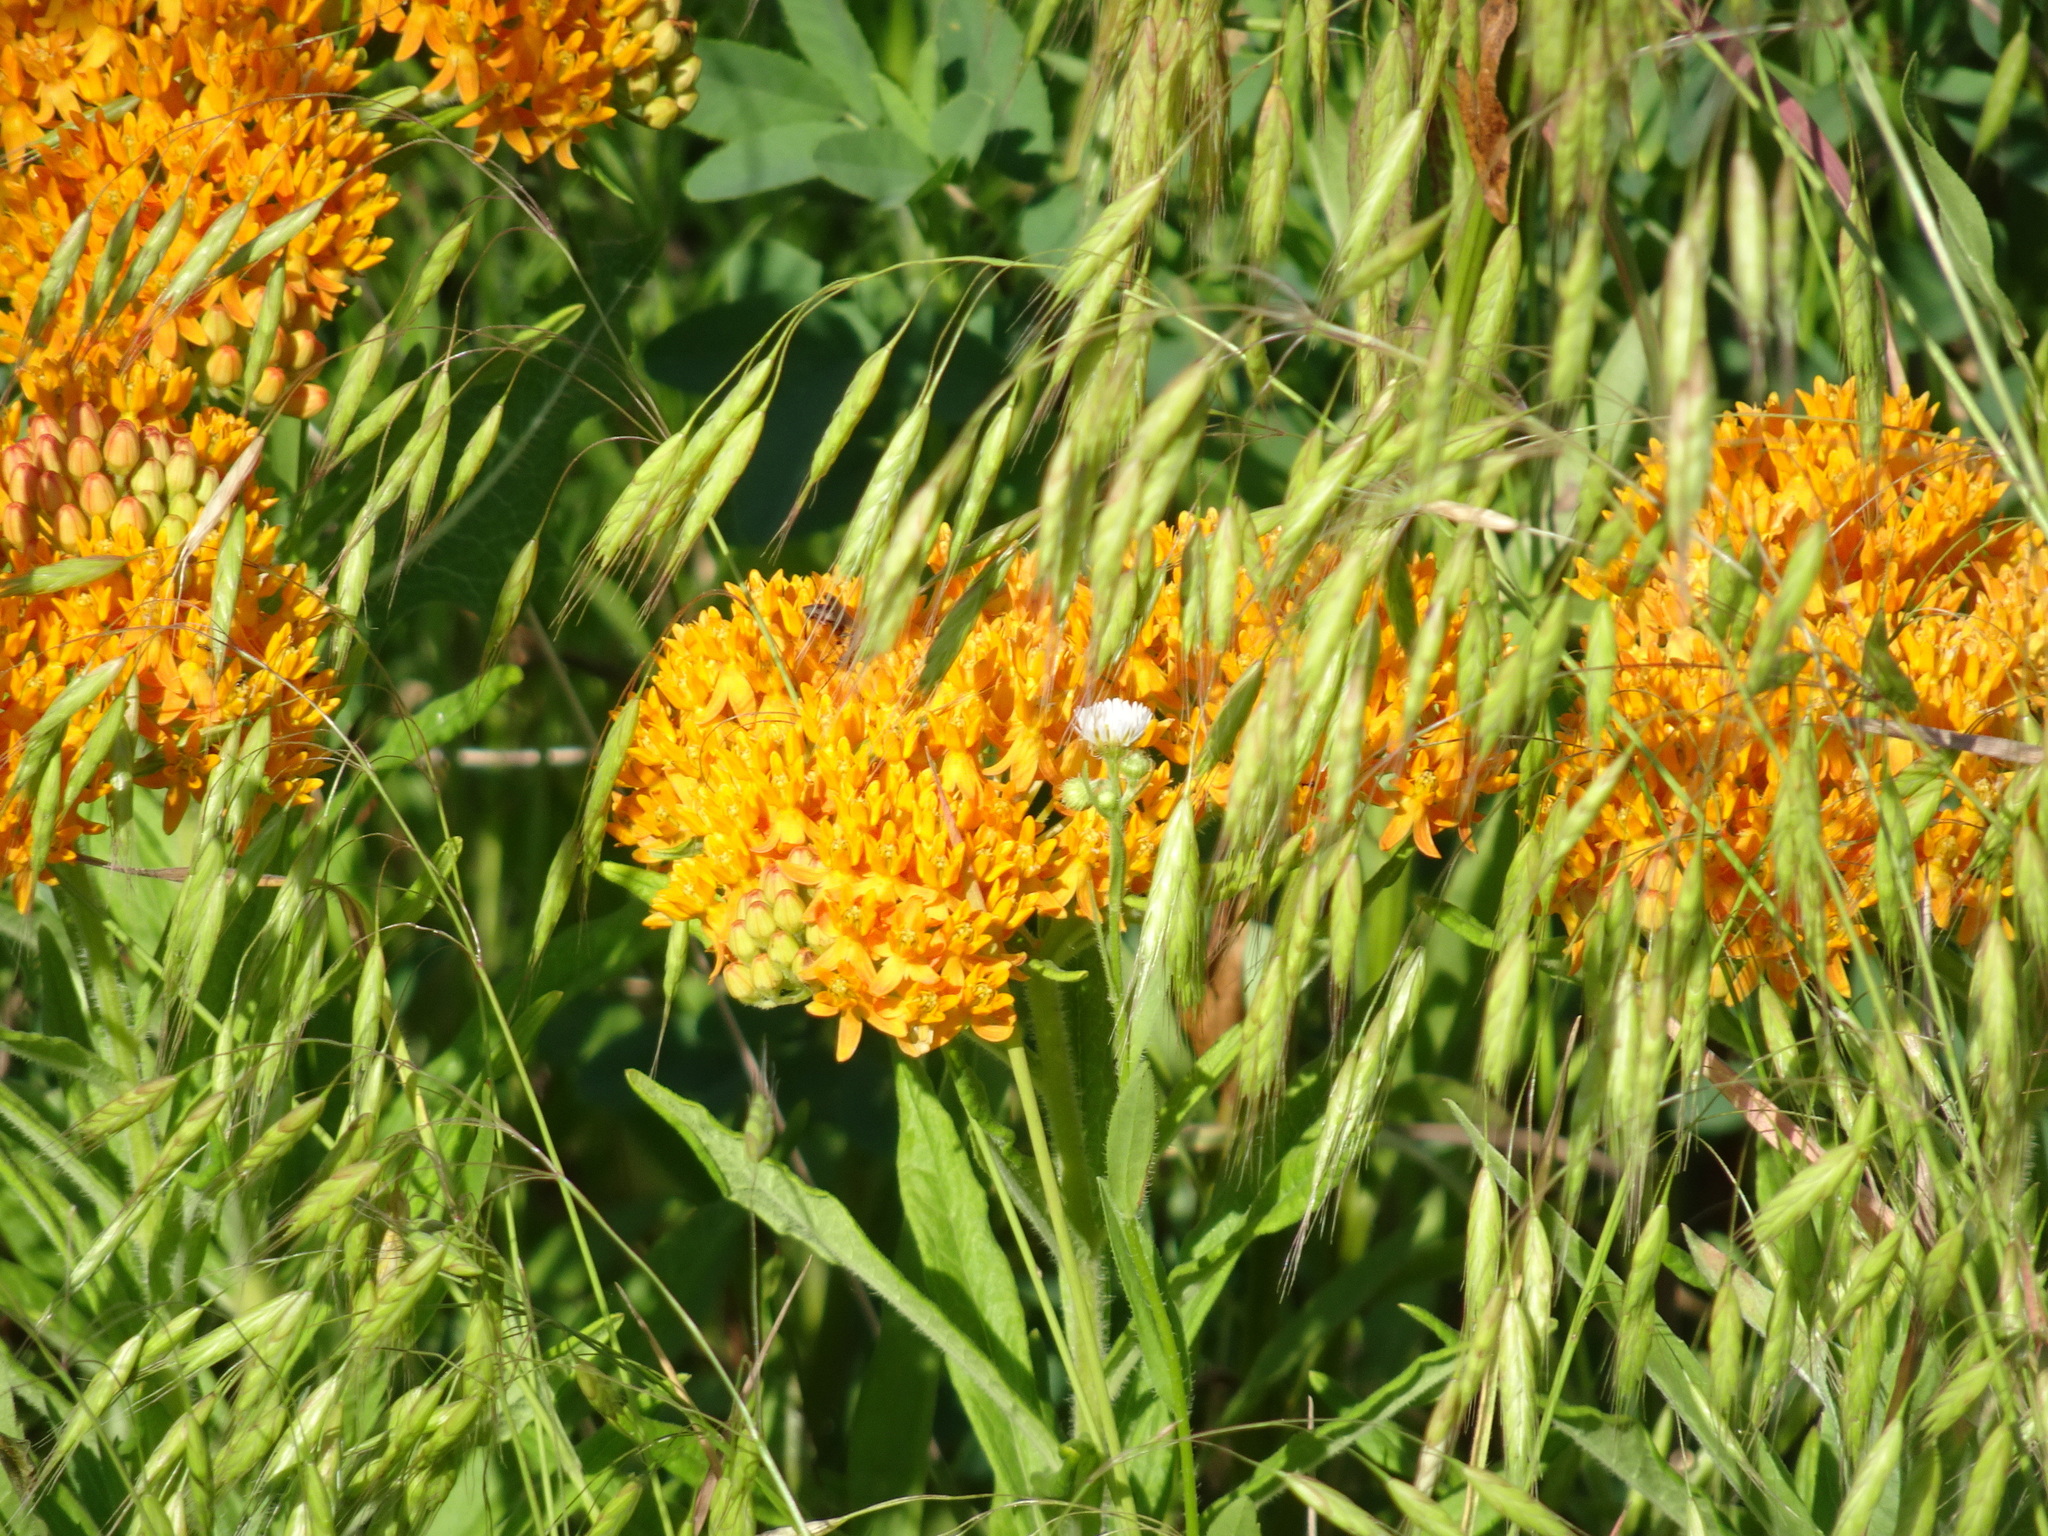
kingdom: Plantae
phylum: Tracheophyta
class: Magnoliopsida
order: Gentianales
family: Apocynaceae
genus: Asclepias
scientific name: Asclepias tuberosa
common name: Butterfly milkweed
